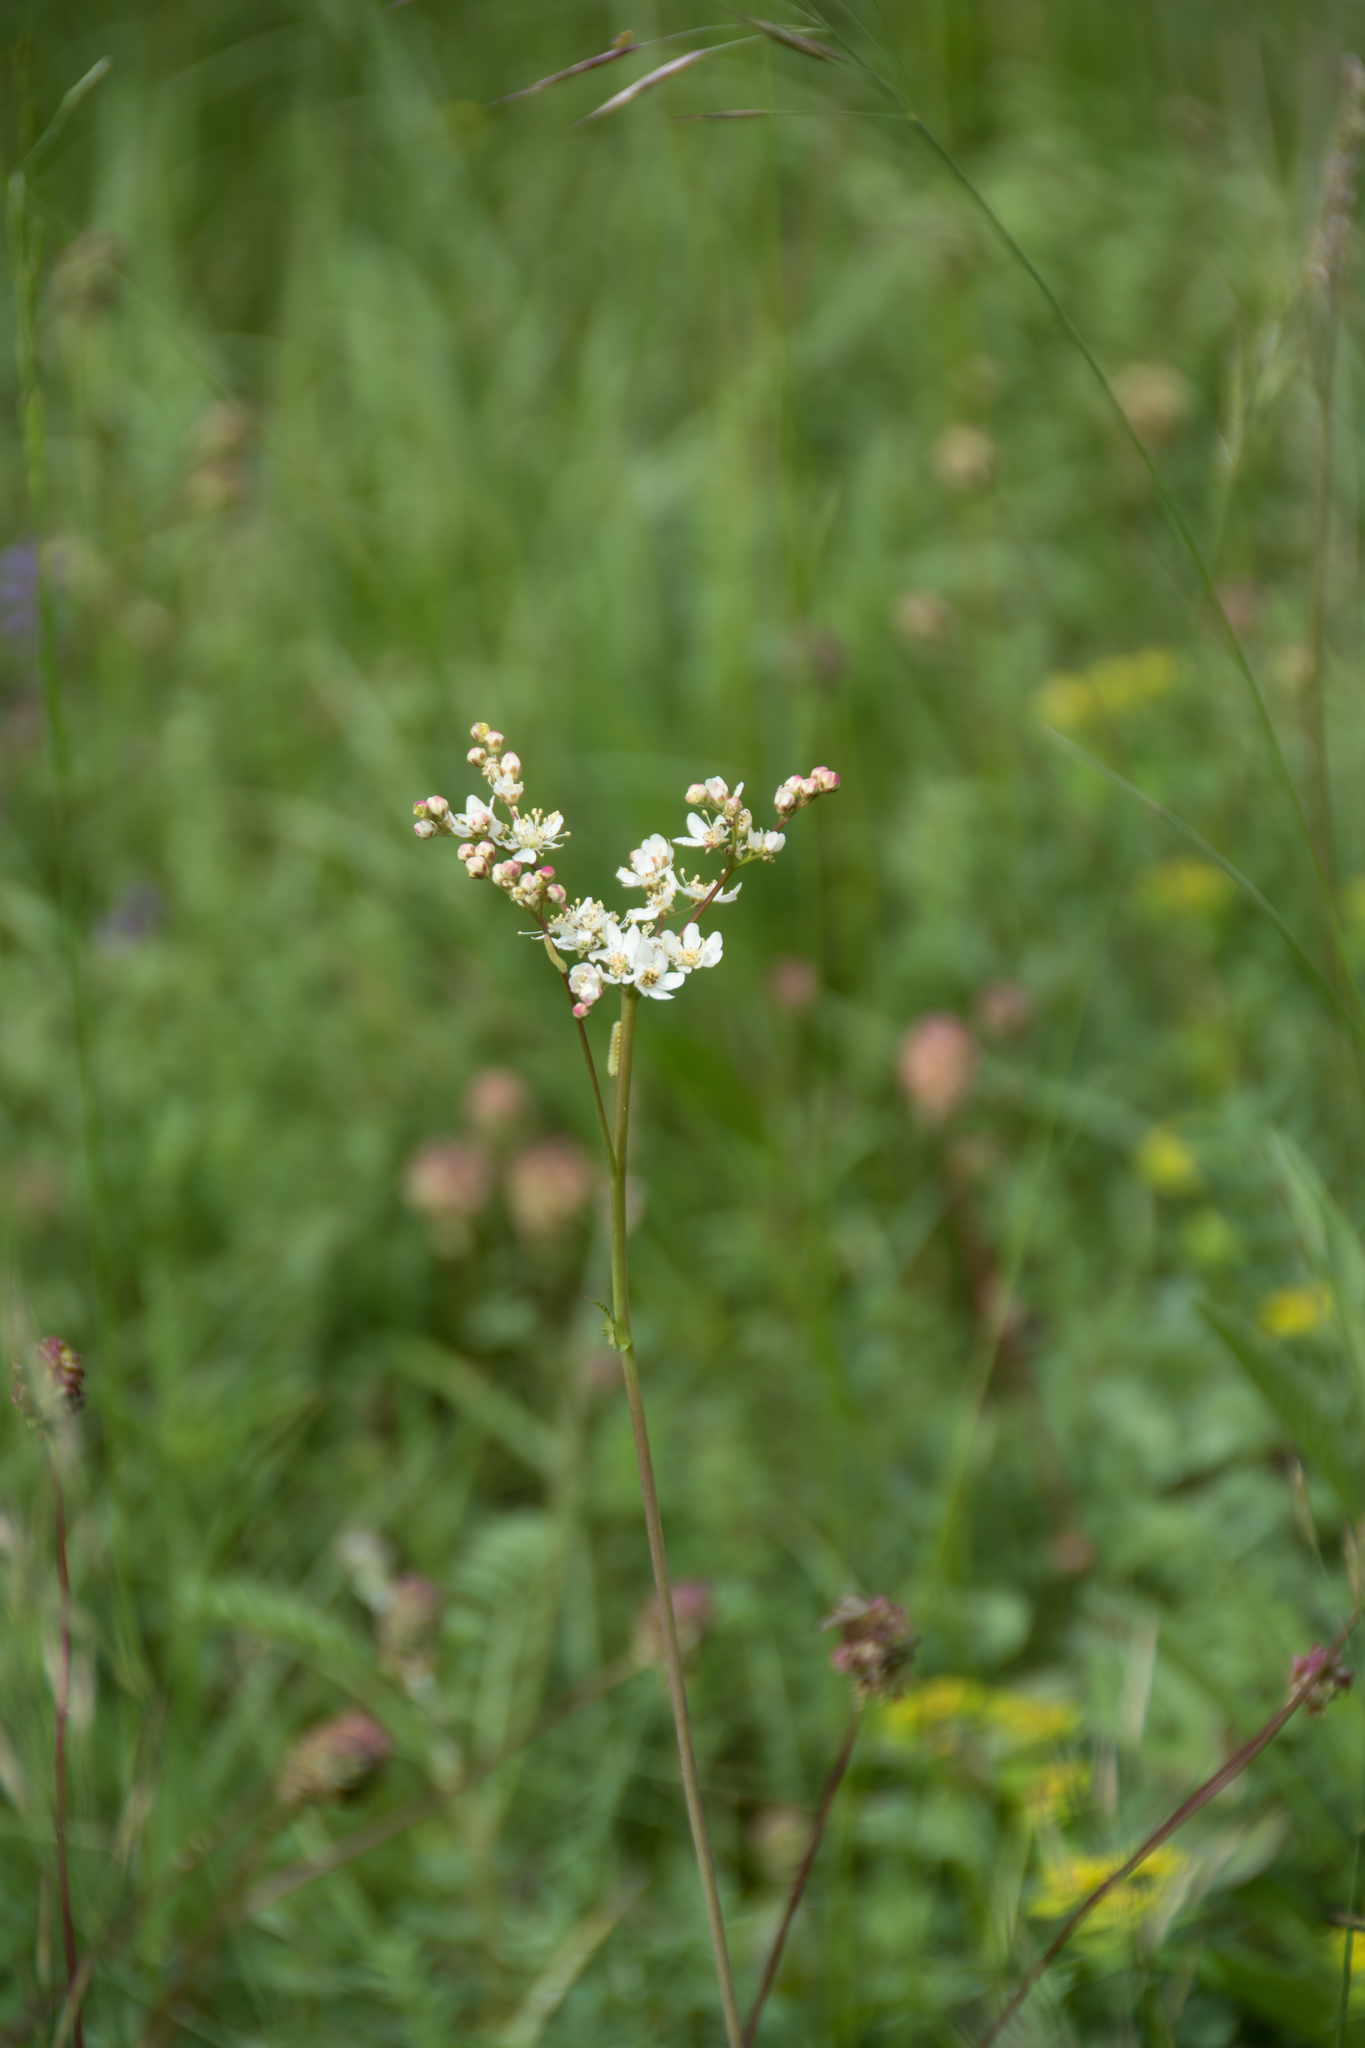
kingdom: Plantae
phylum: Tracheophyta
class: Magnoliopsida
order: Rosales
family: Rosaceae
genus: Filipendula
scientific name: Filipendula vulgaris
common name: Dropwort
